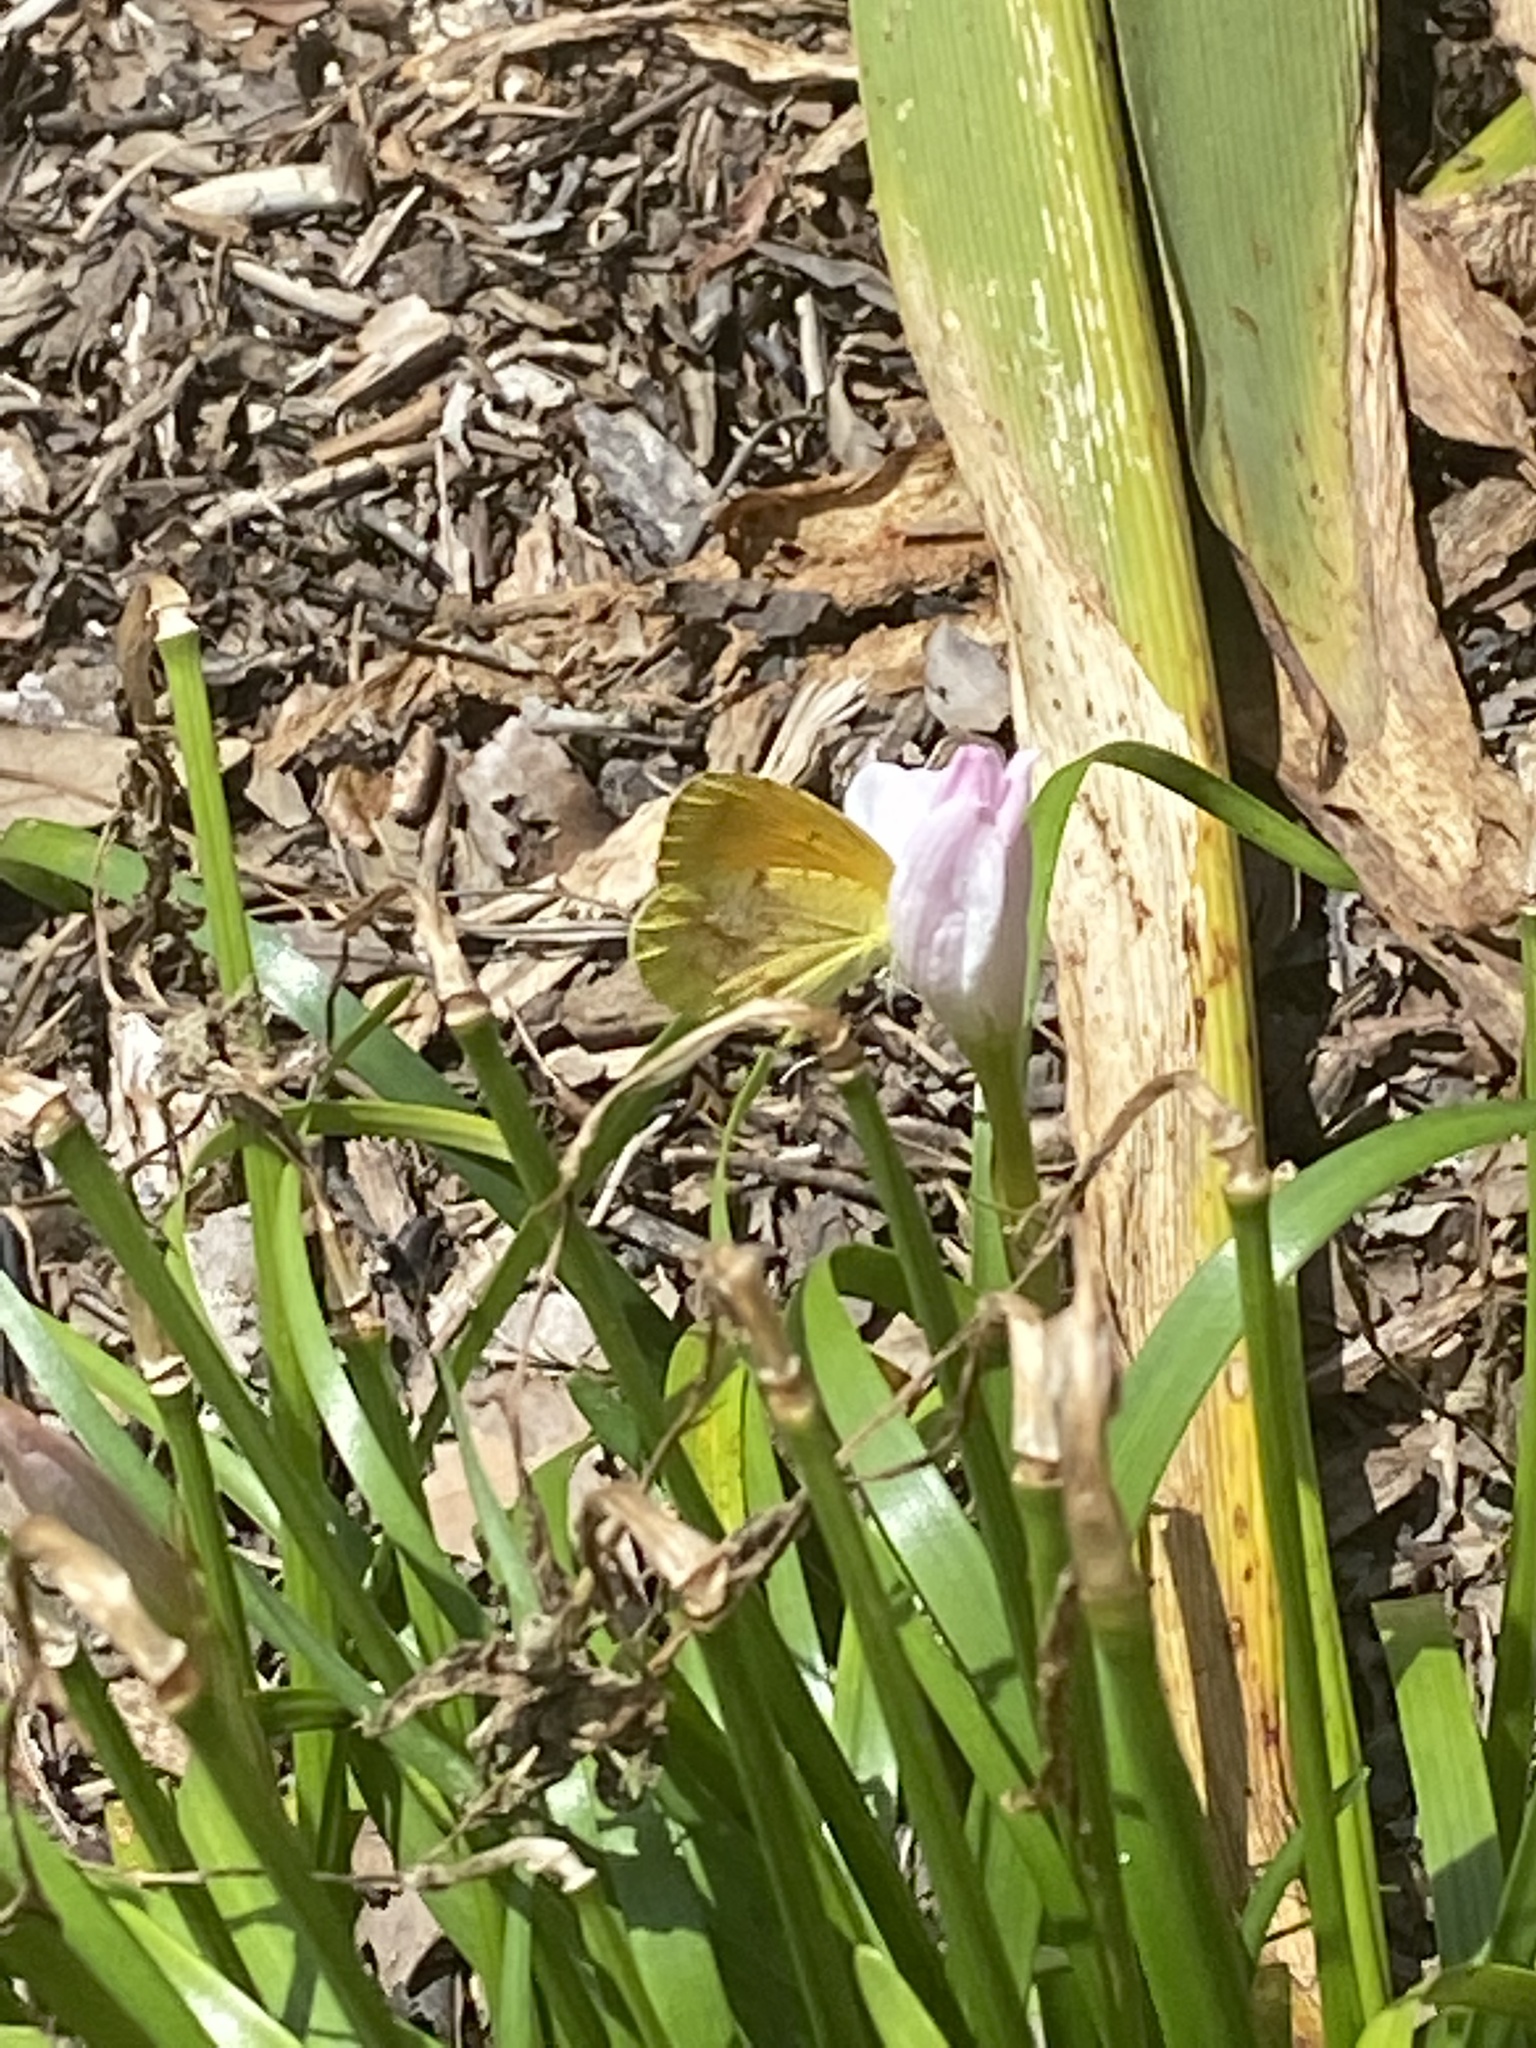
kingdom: Animalia
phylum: Arthropoda
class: Insecta
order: Lepidoptera
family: Pieridae
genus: Abaeis
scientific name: Abaeis nicippe
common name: Sleepy orange
